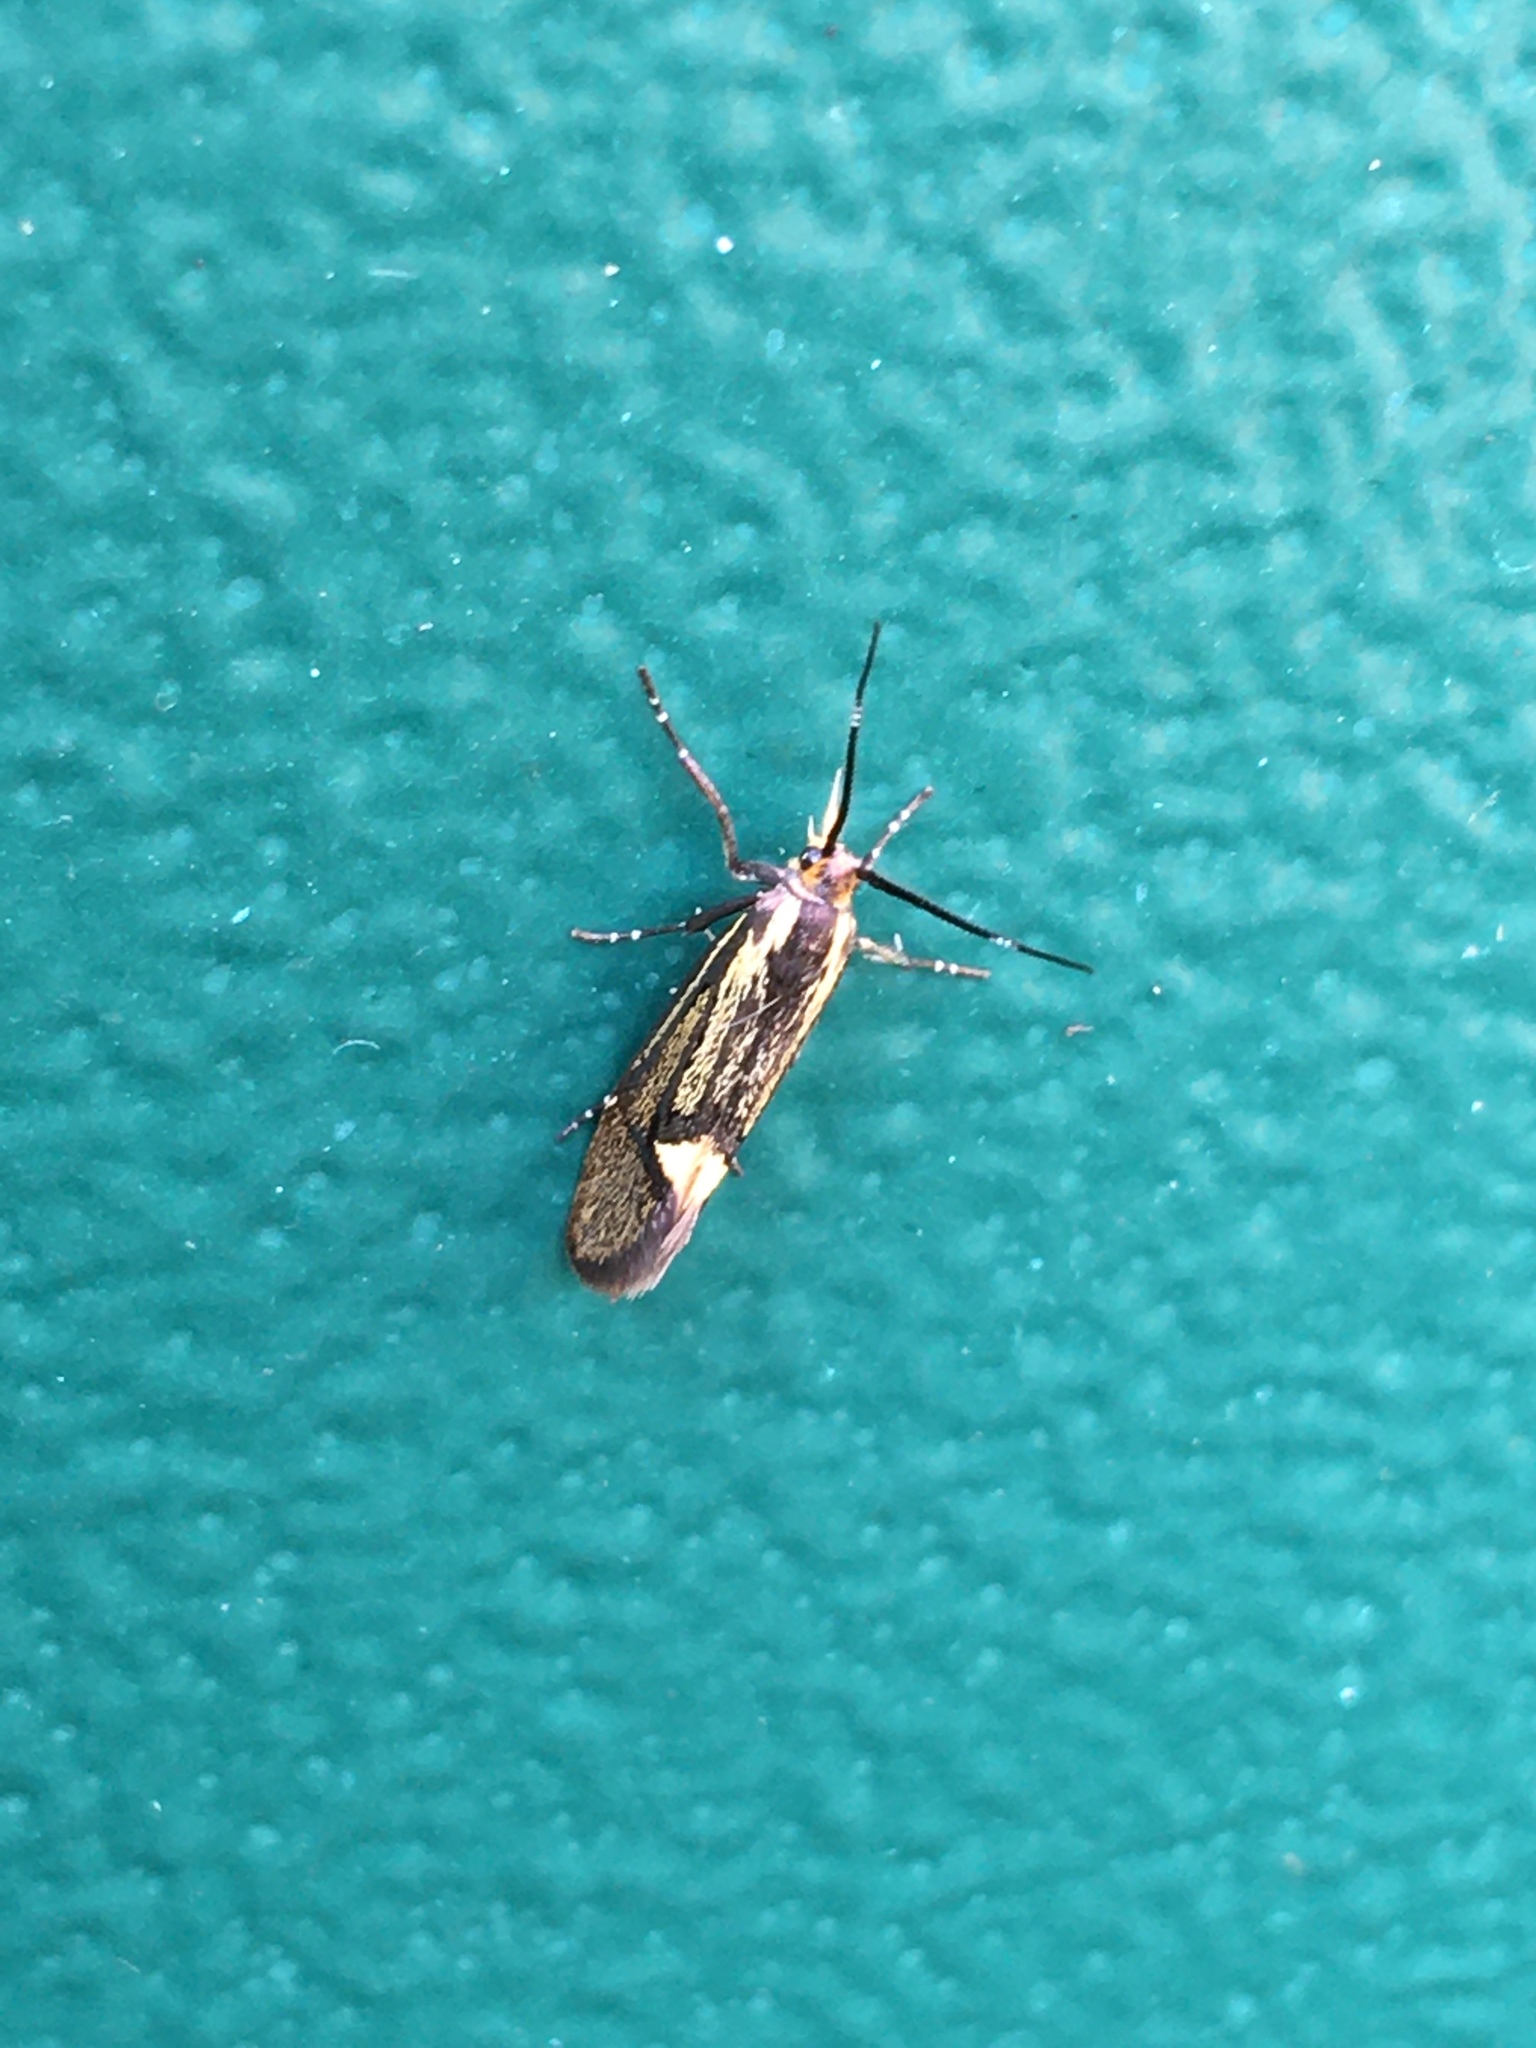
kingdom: Animalia
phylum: Arthropoda
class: Insecta
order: Lepidoptera
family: Oecophoridae
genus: Dafa
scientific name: Dafa Esperia sulphurella
